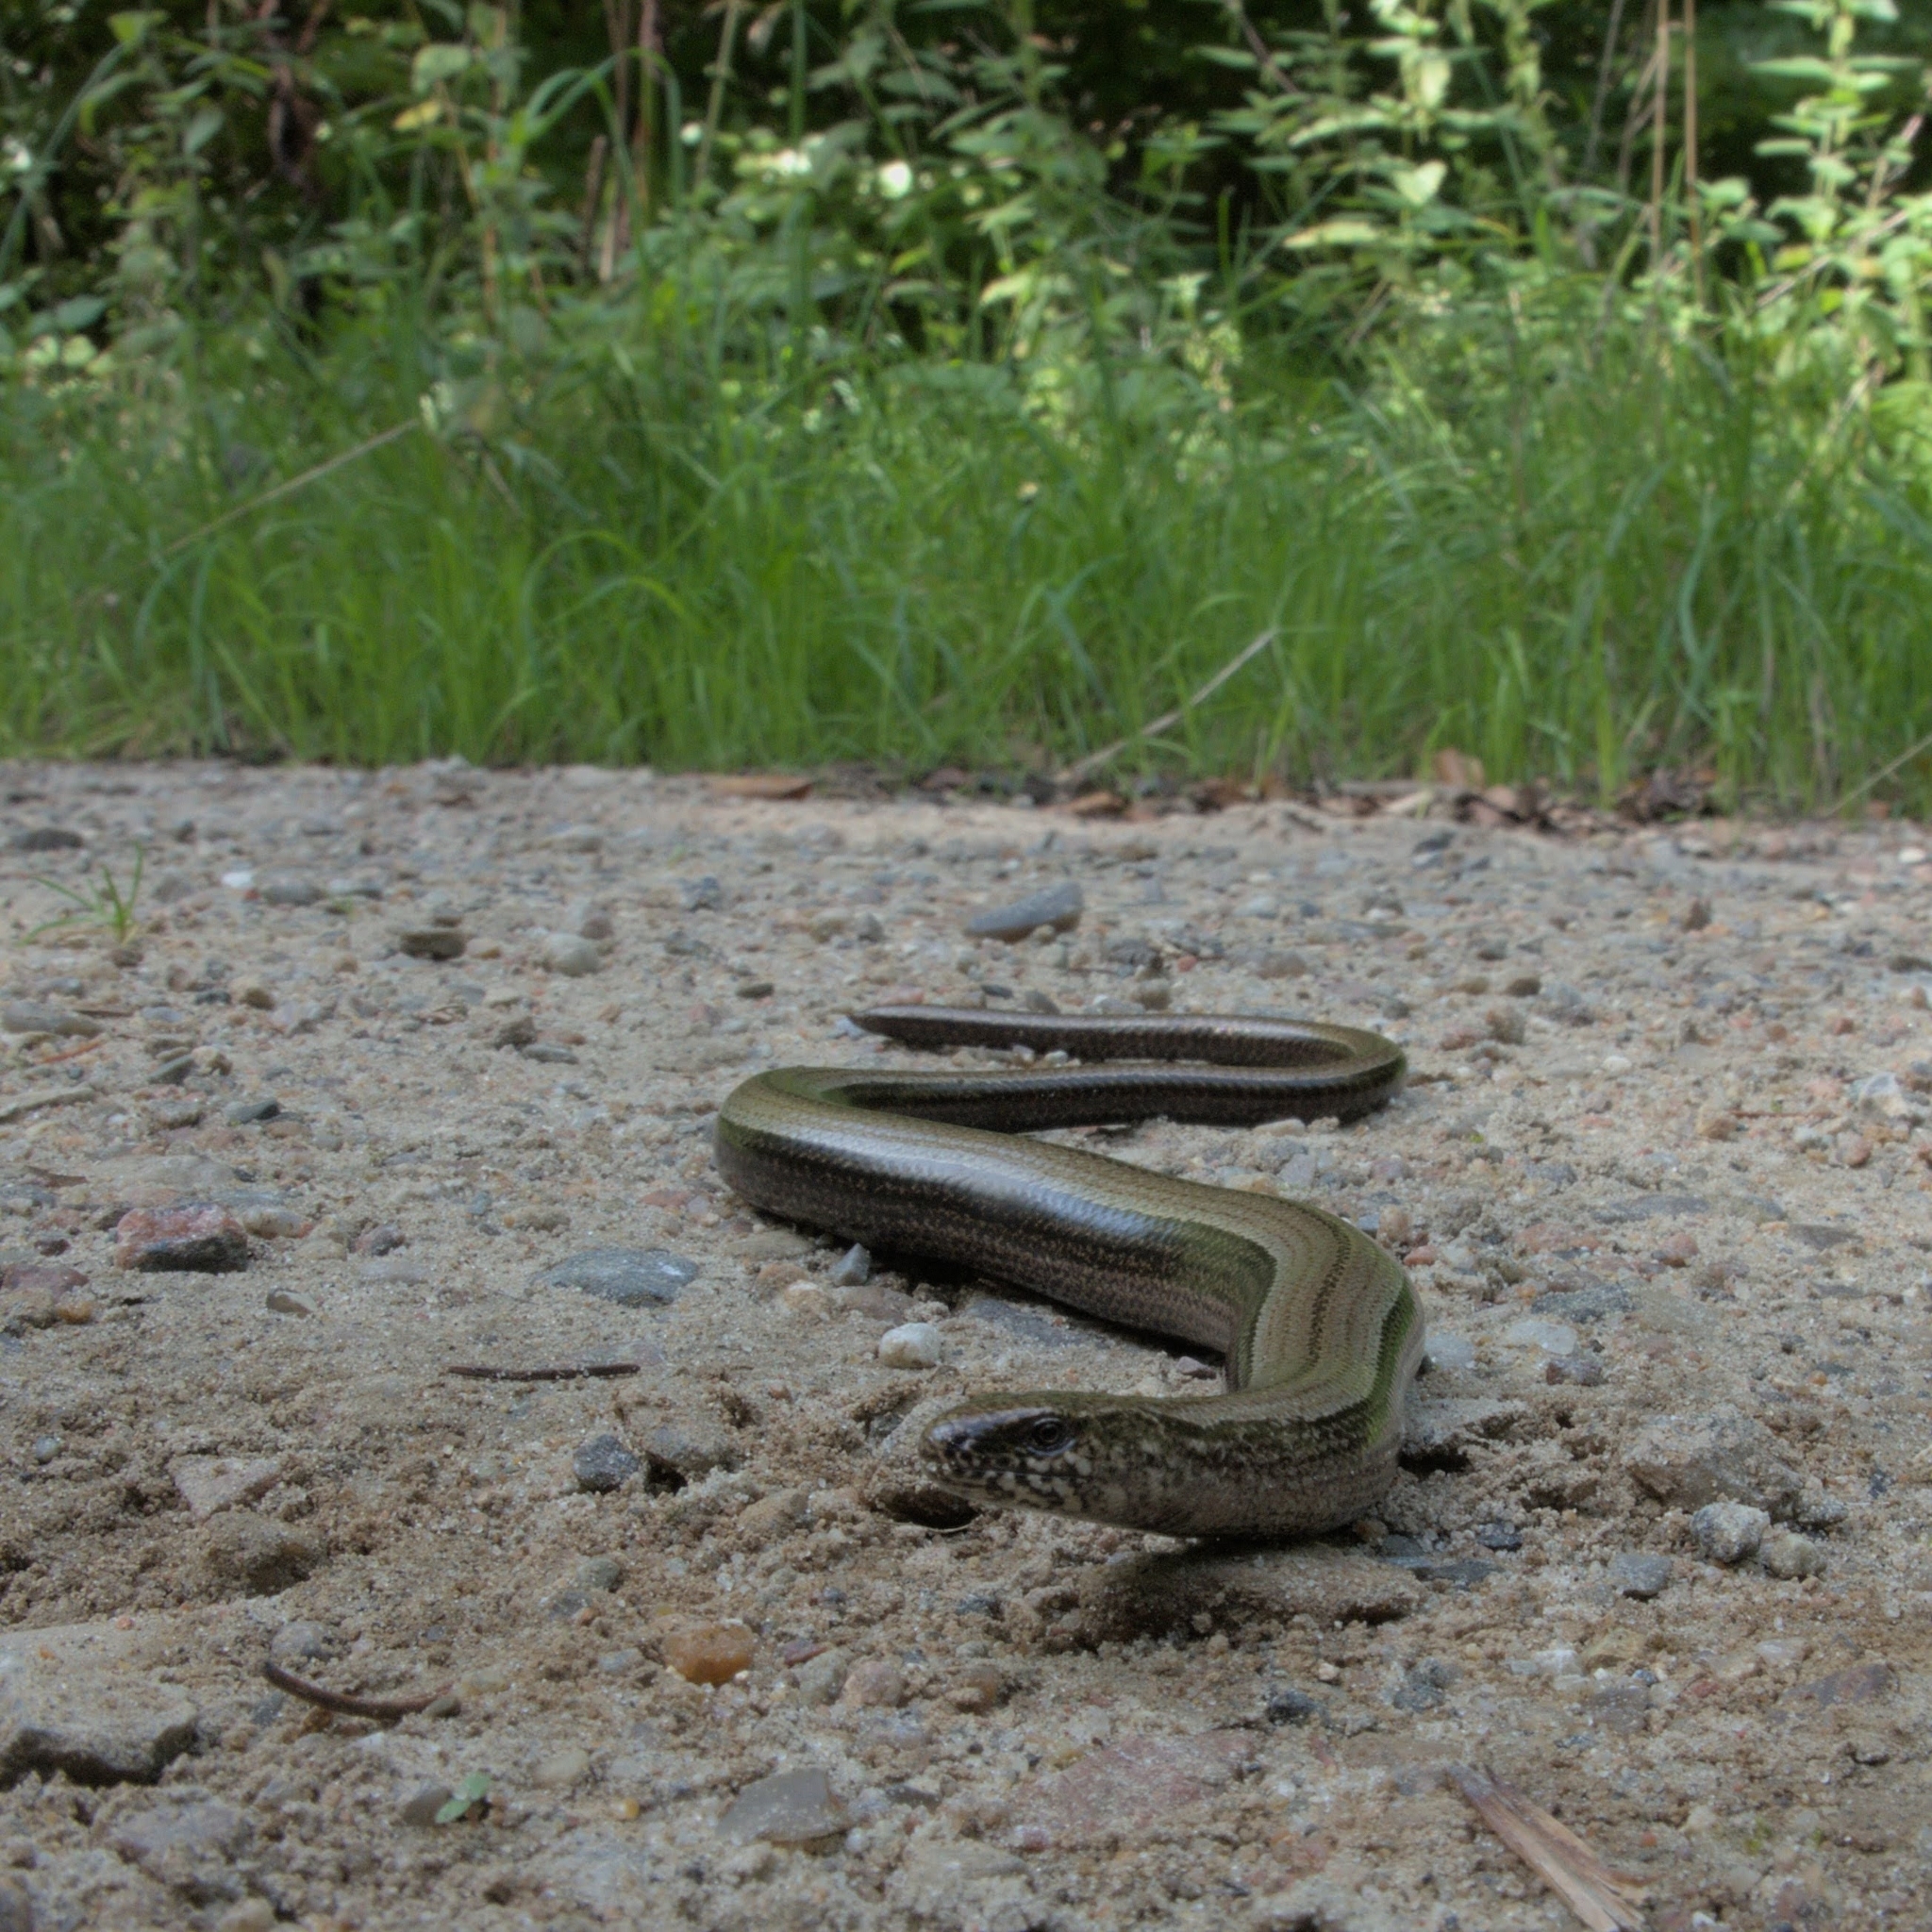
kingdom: Animalia
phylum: Chordata
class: Squamata
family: Anguidae
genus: Anguis
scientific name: Anguis fragilis
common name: Slow worm
